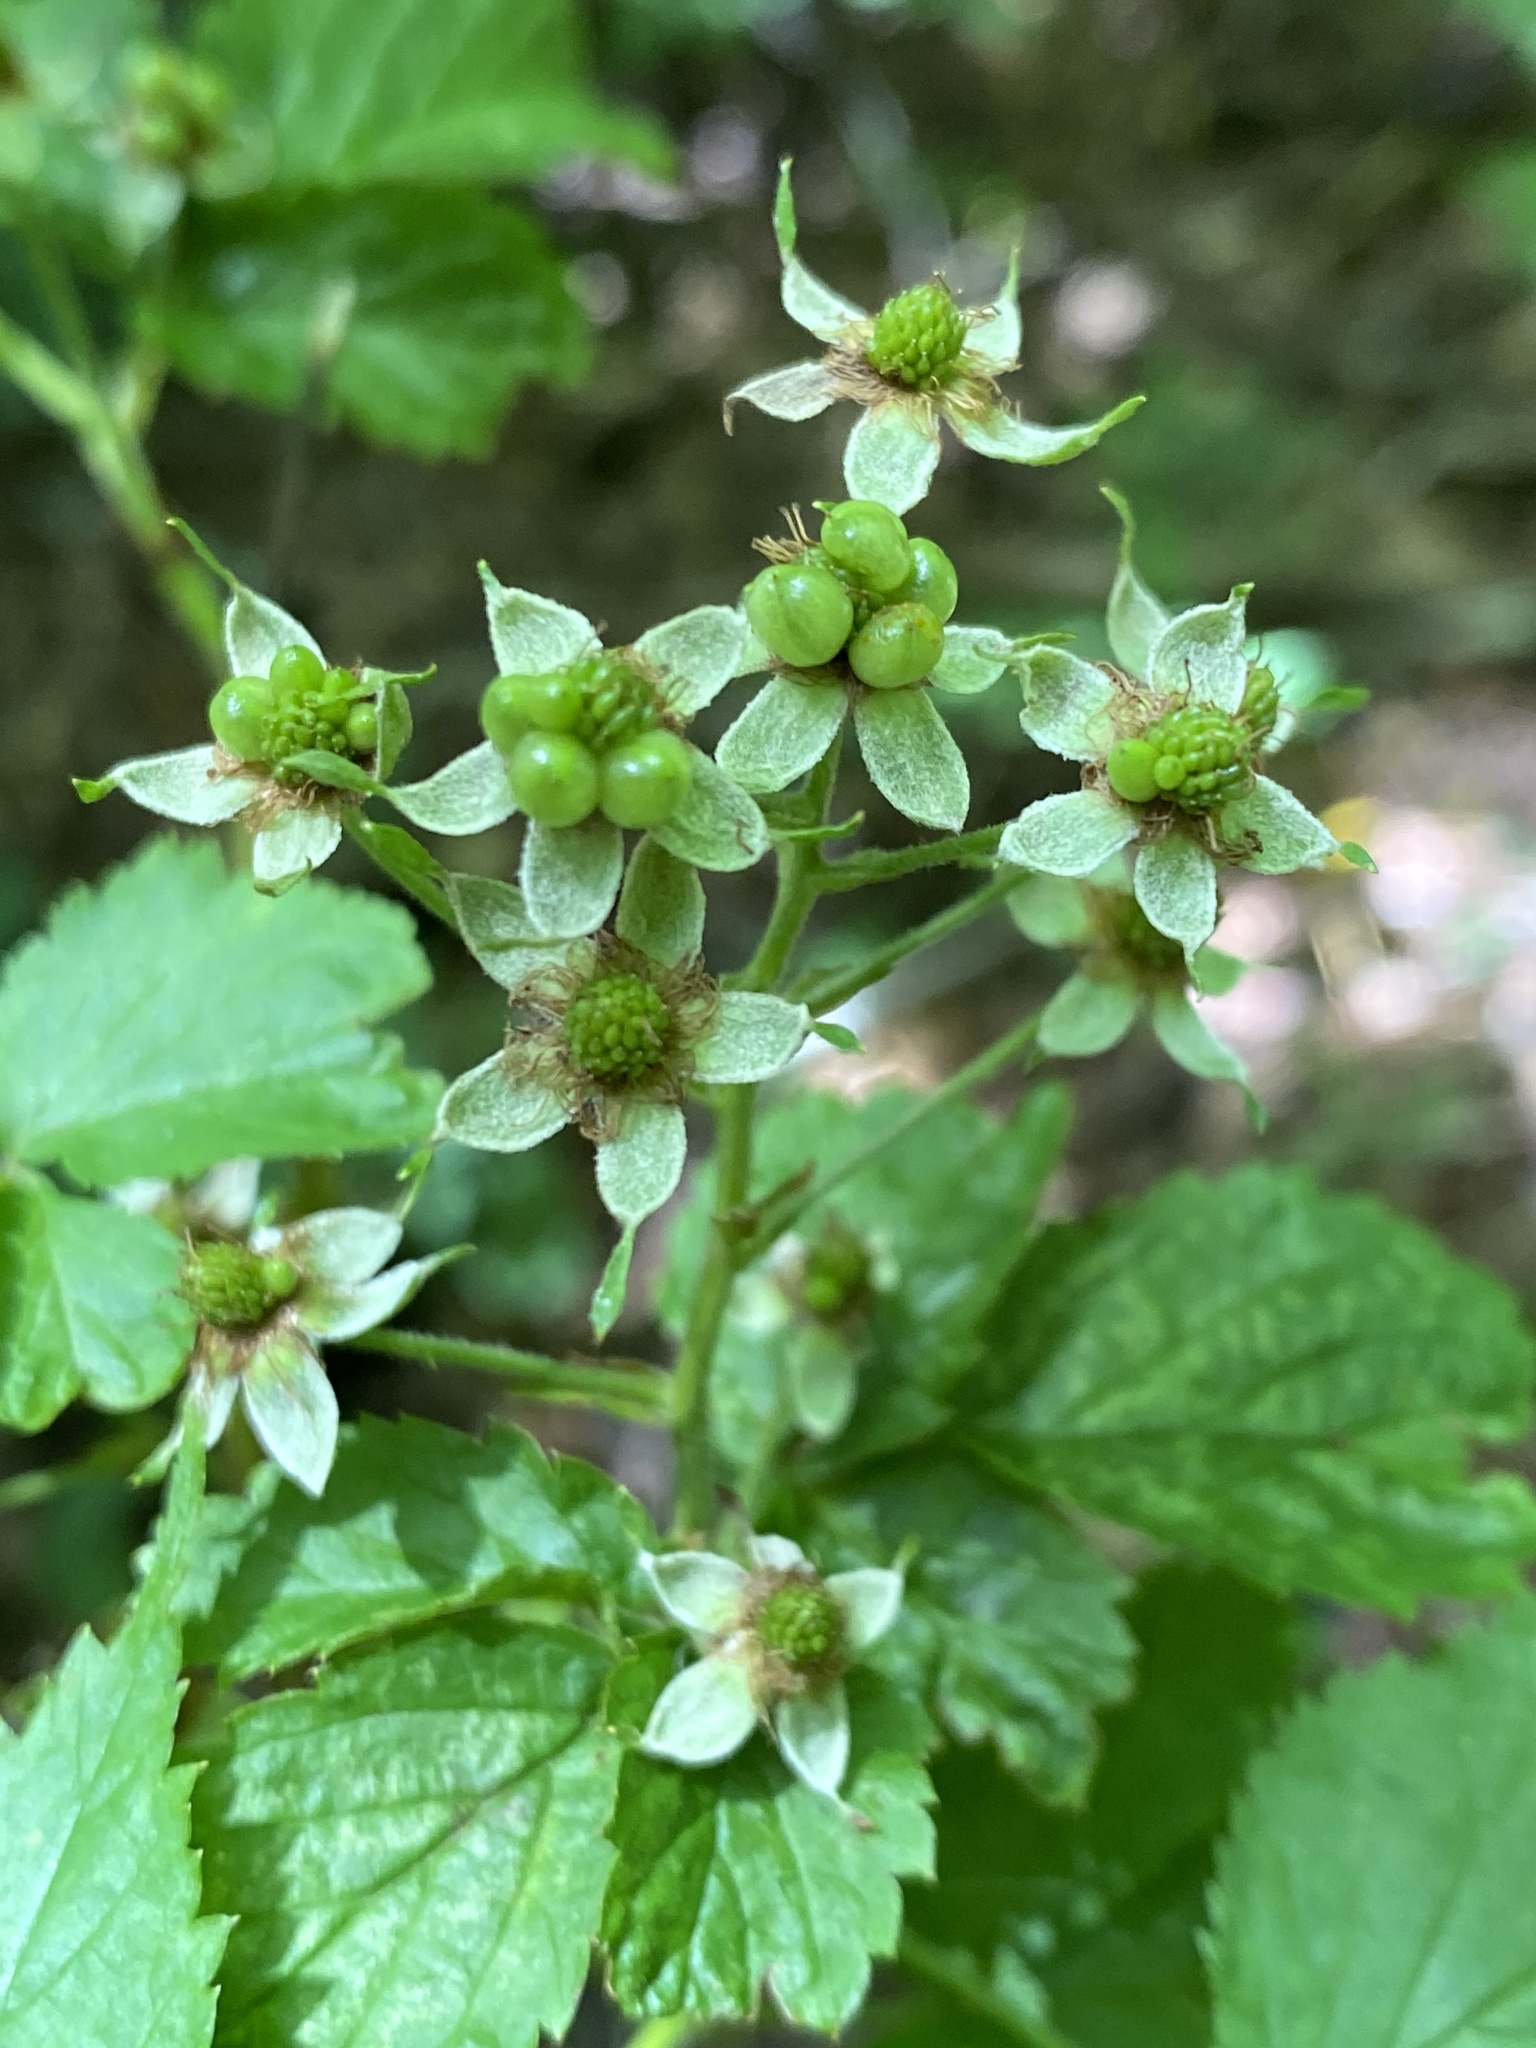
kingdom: Plantae
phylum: Tracheophyta
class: Magnoliopsida
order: Rosales
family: Rosaceae
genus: Rubus
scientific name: Rubus canadensis
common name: Smooth blackberry
